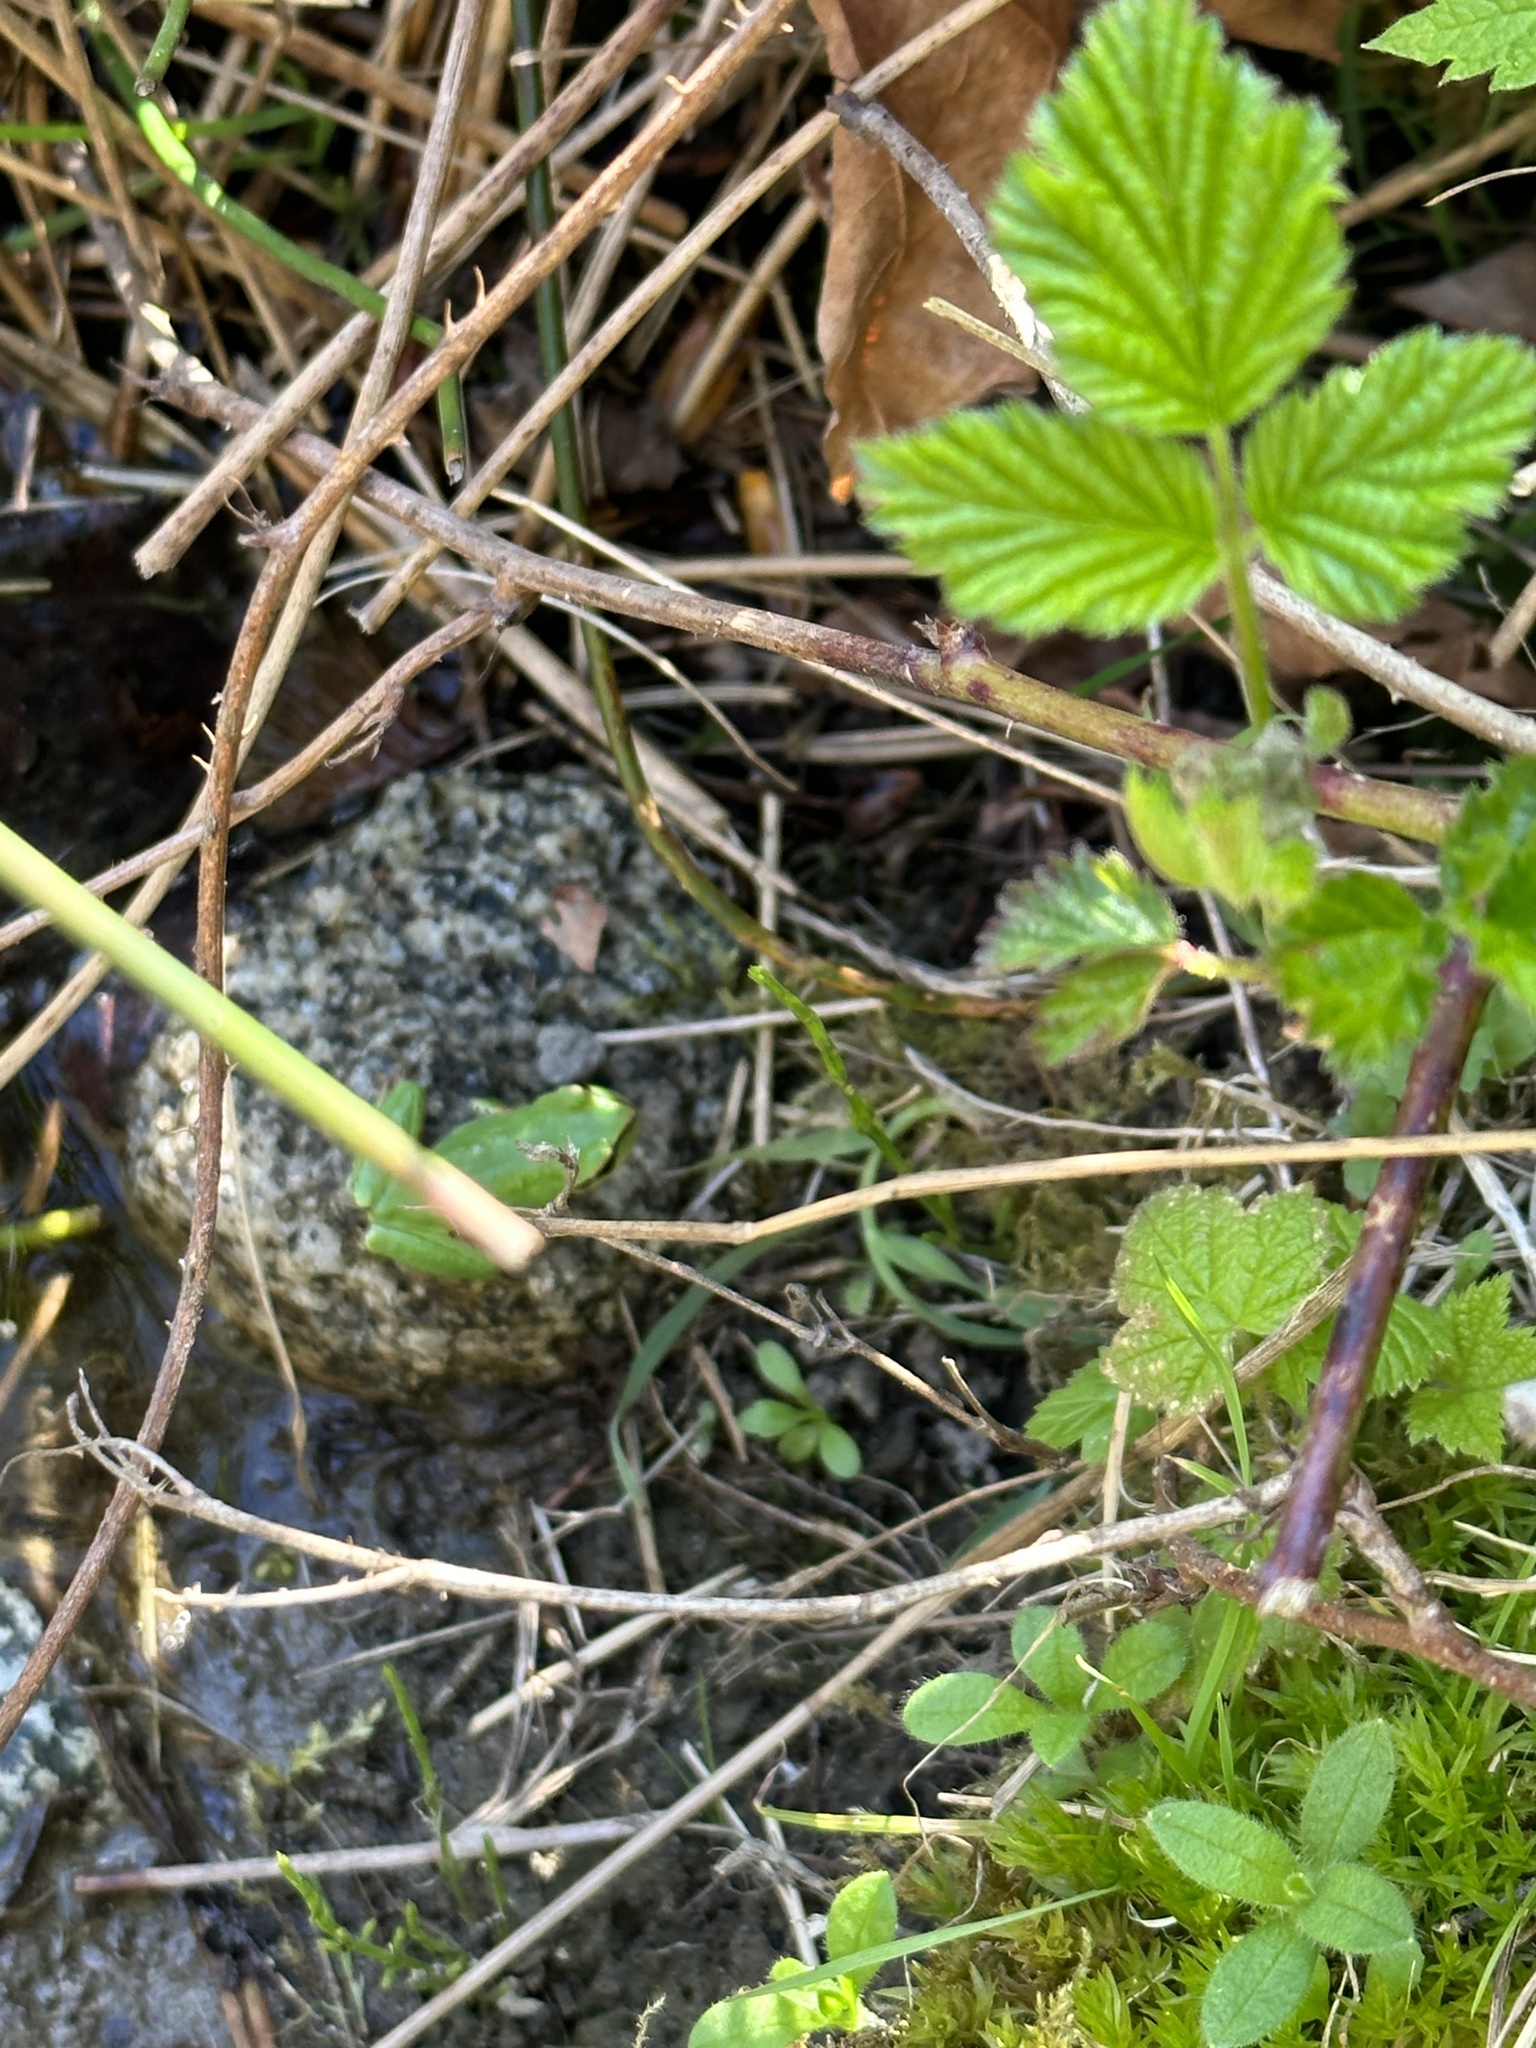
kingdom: Animalia
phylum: Chordata
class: Amphibia
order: Anura
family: Hylidae
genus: Pseudacris
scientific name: Pseudacris regilla
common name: Pacific chorus frog
